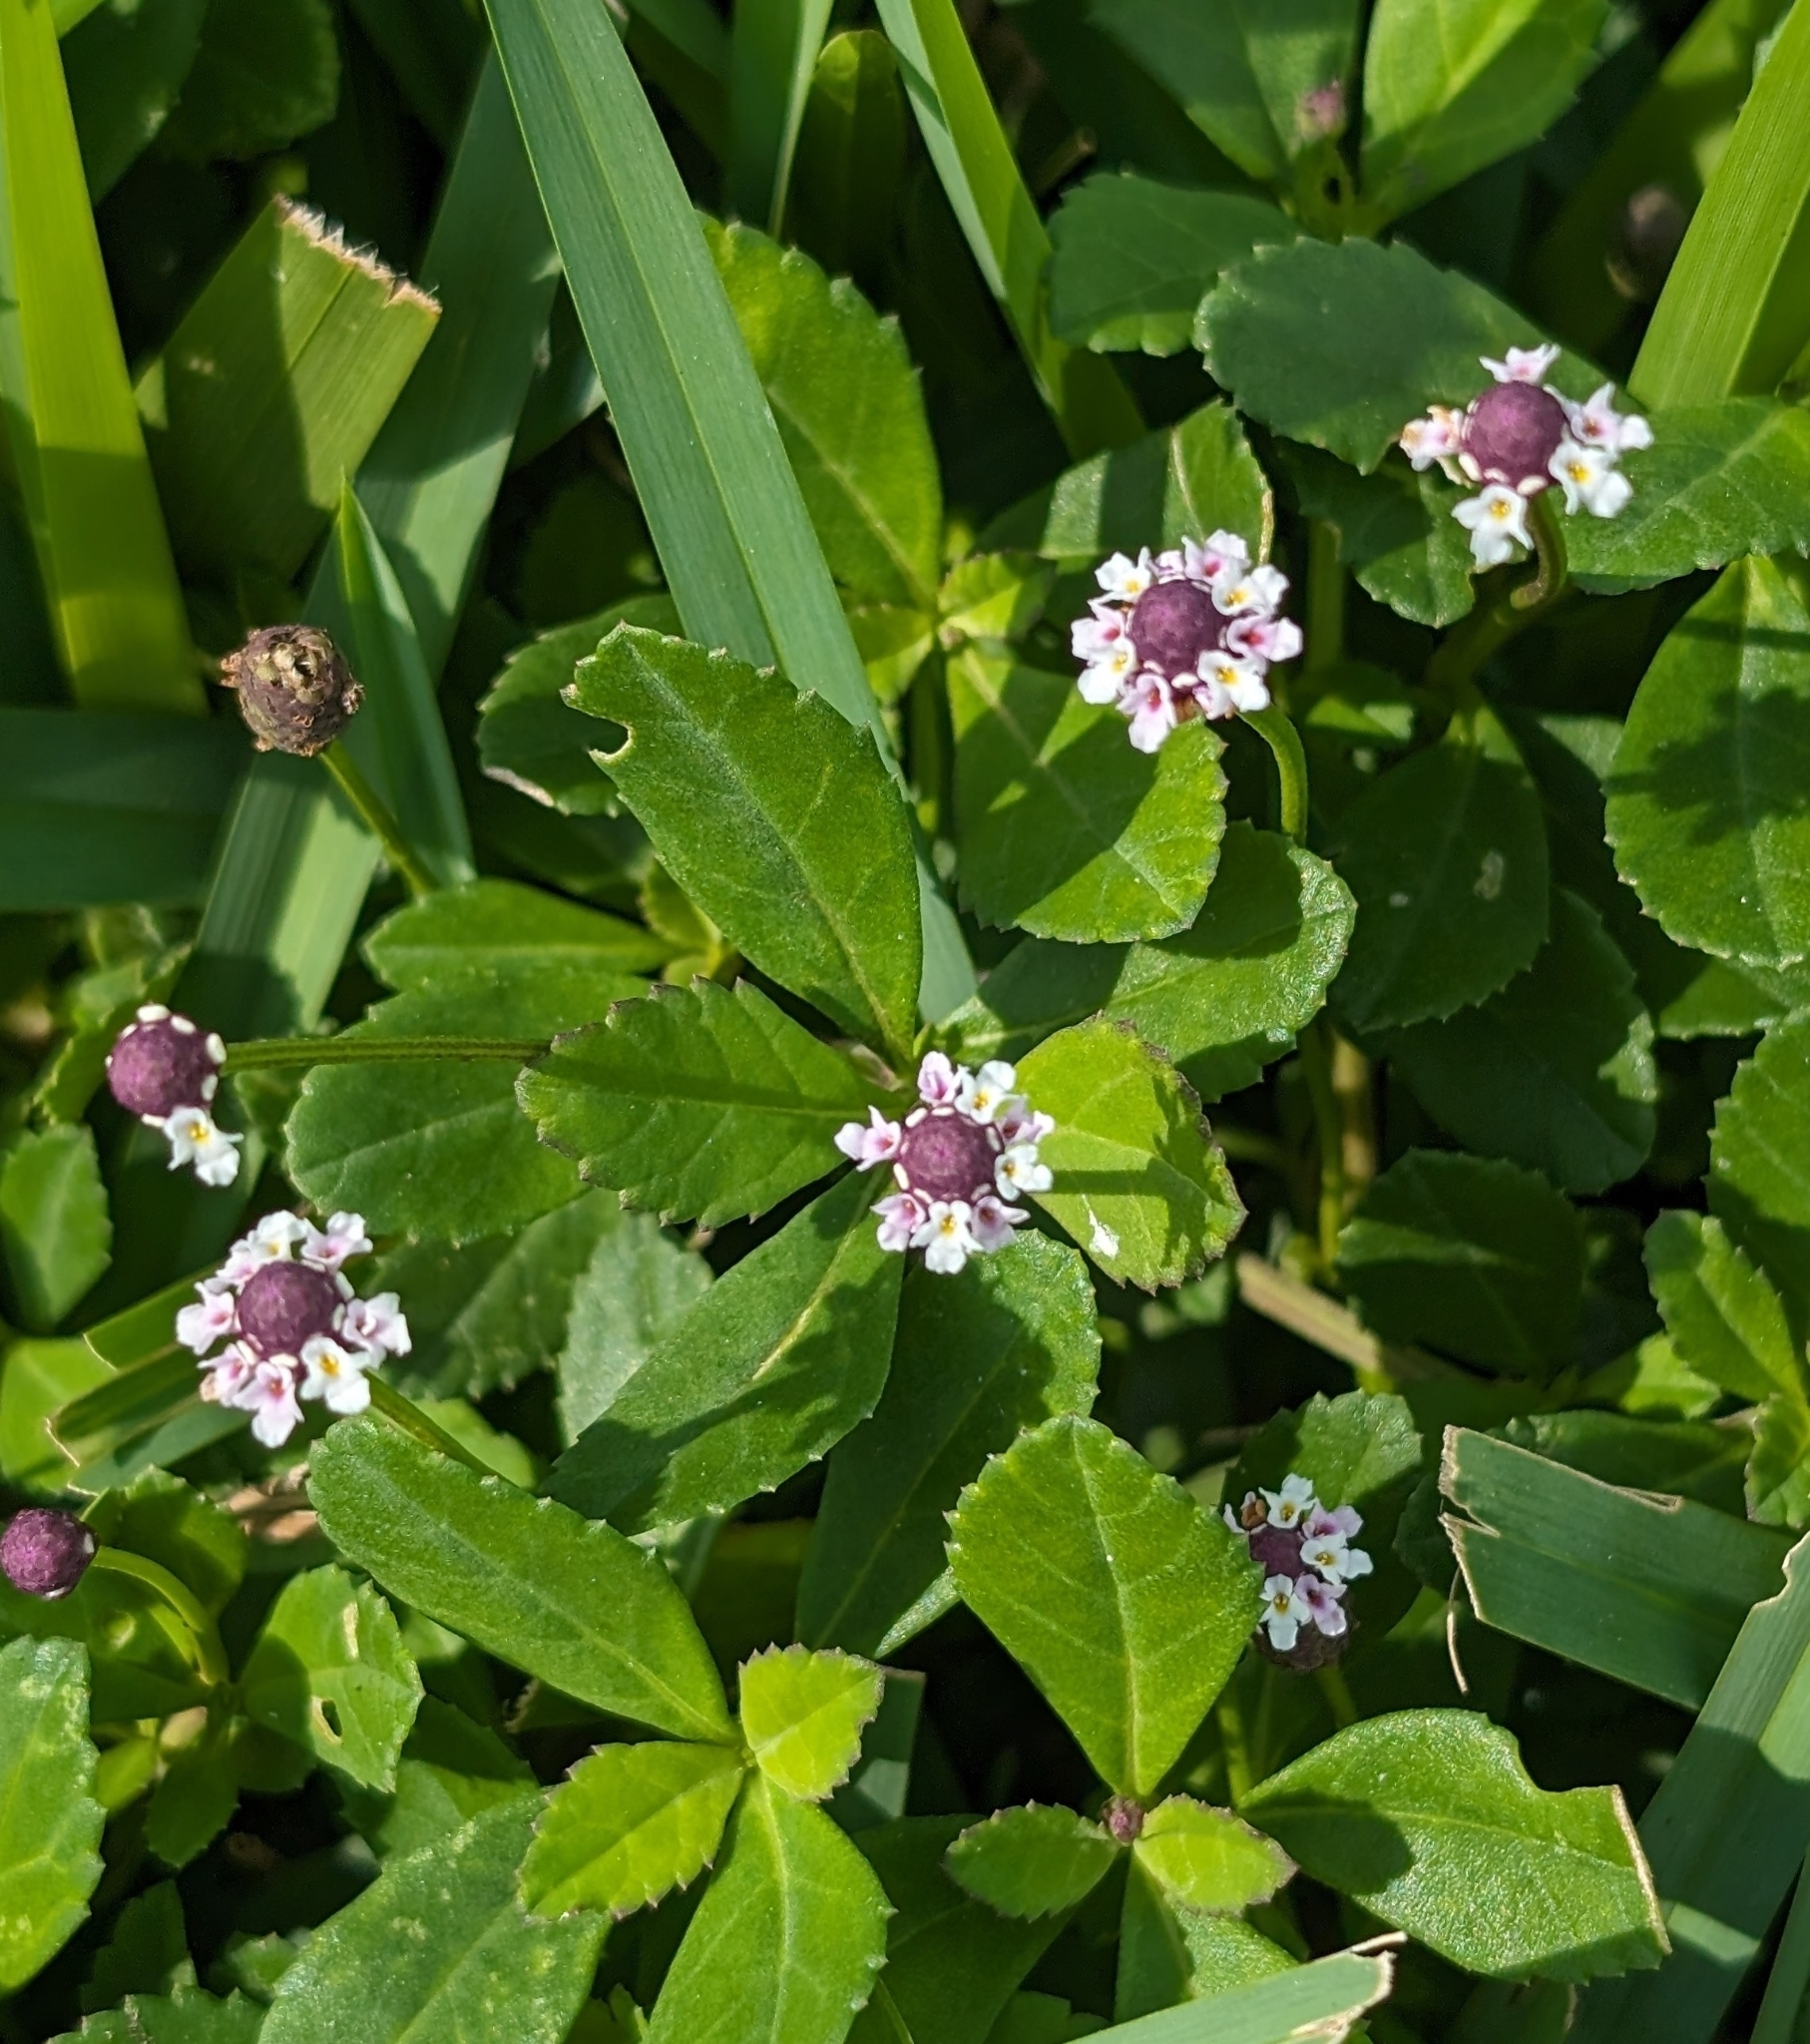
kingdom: Plantae
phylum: Tracheophyta
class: Magnoliopsida
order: Lamiales
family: Verbenaceae
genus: Phyla
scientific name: Phyla nodiflora
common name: Frogfruit
